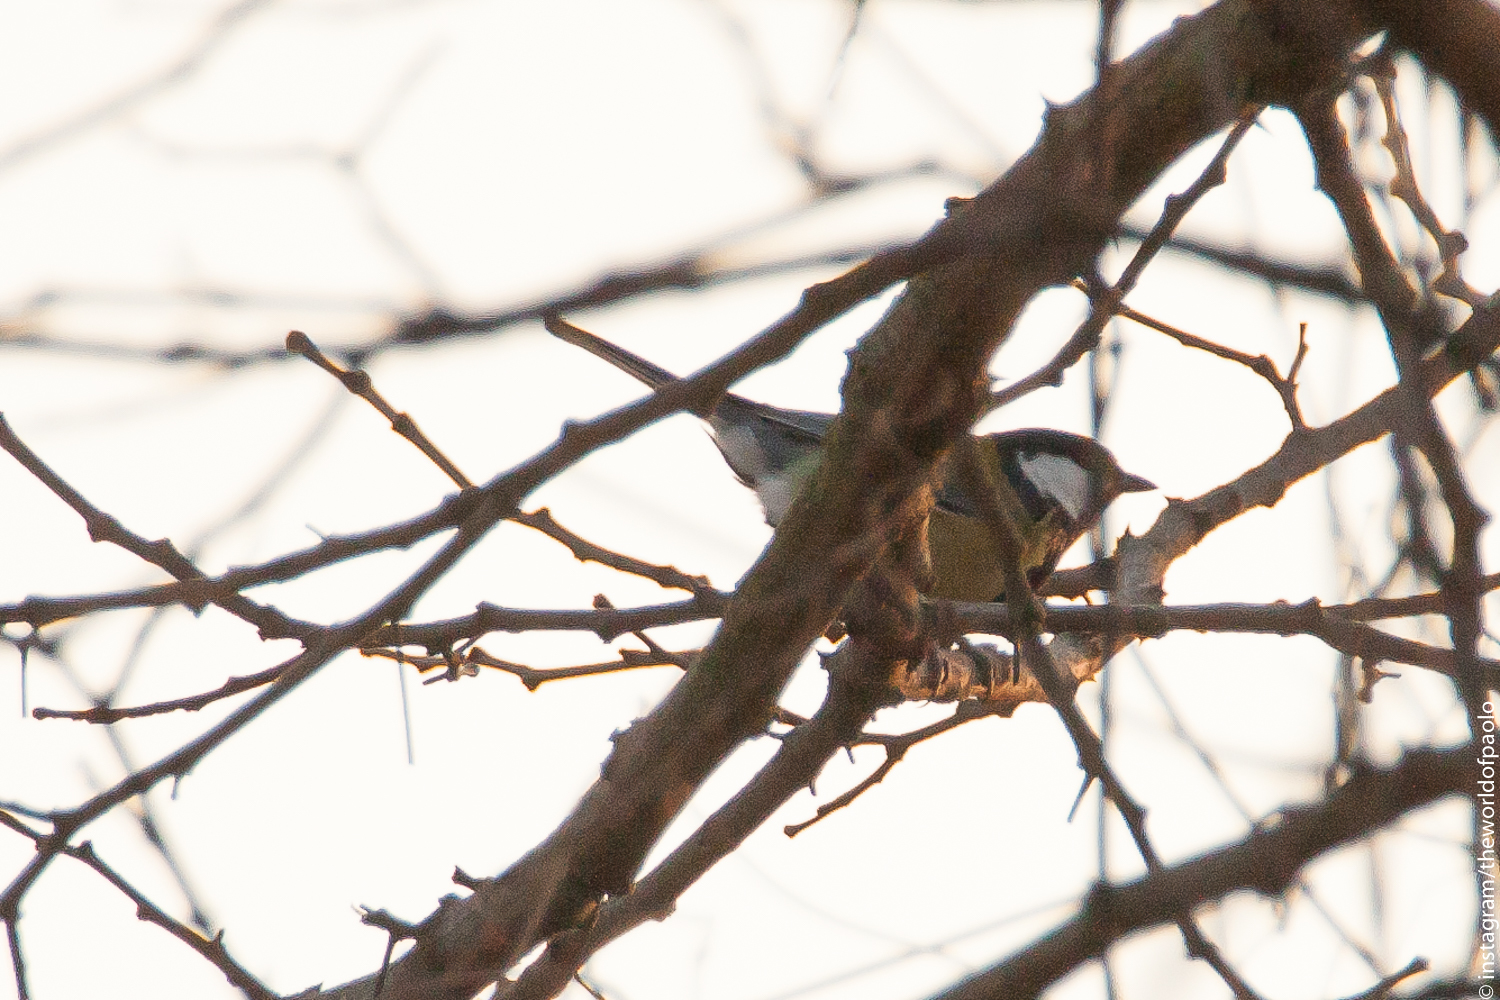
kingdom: Animalia
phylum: Chordata
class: Aves
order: Passeriformes
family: Paridae
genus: Parus
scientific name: Parus major
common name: Great tit
